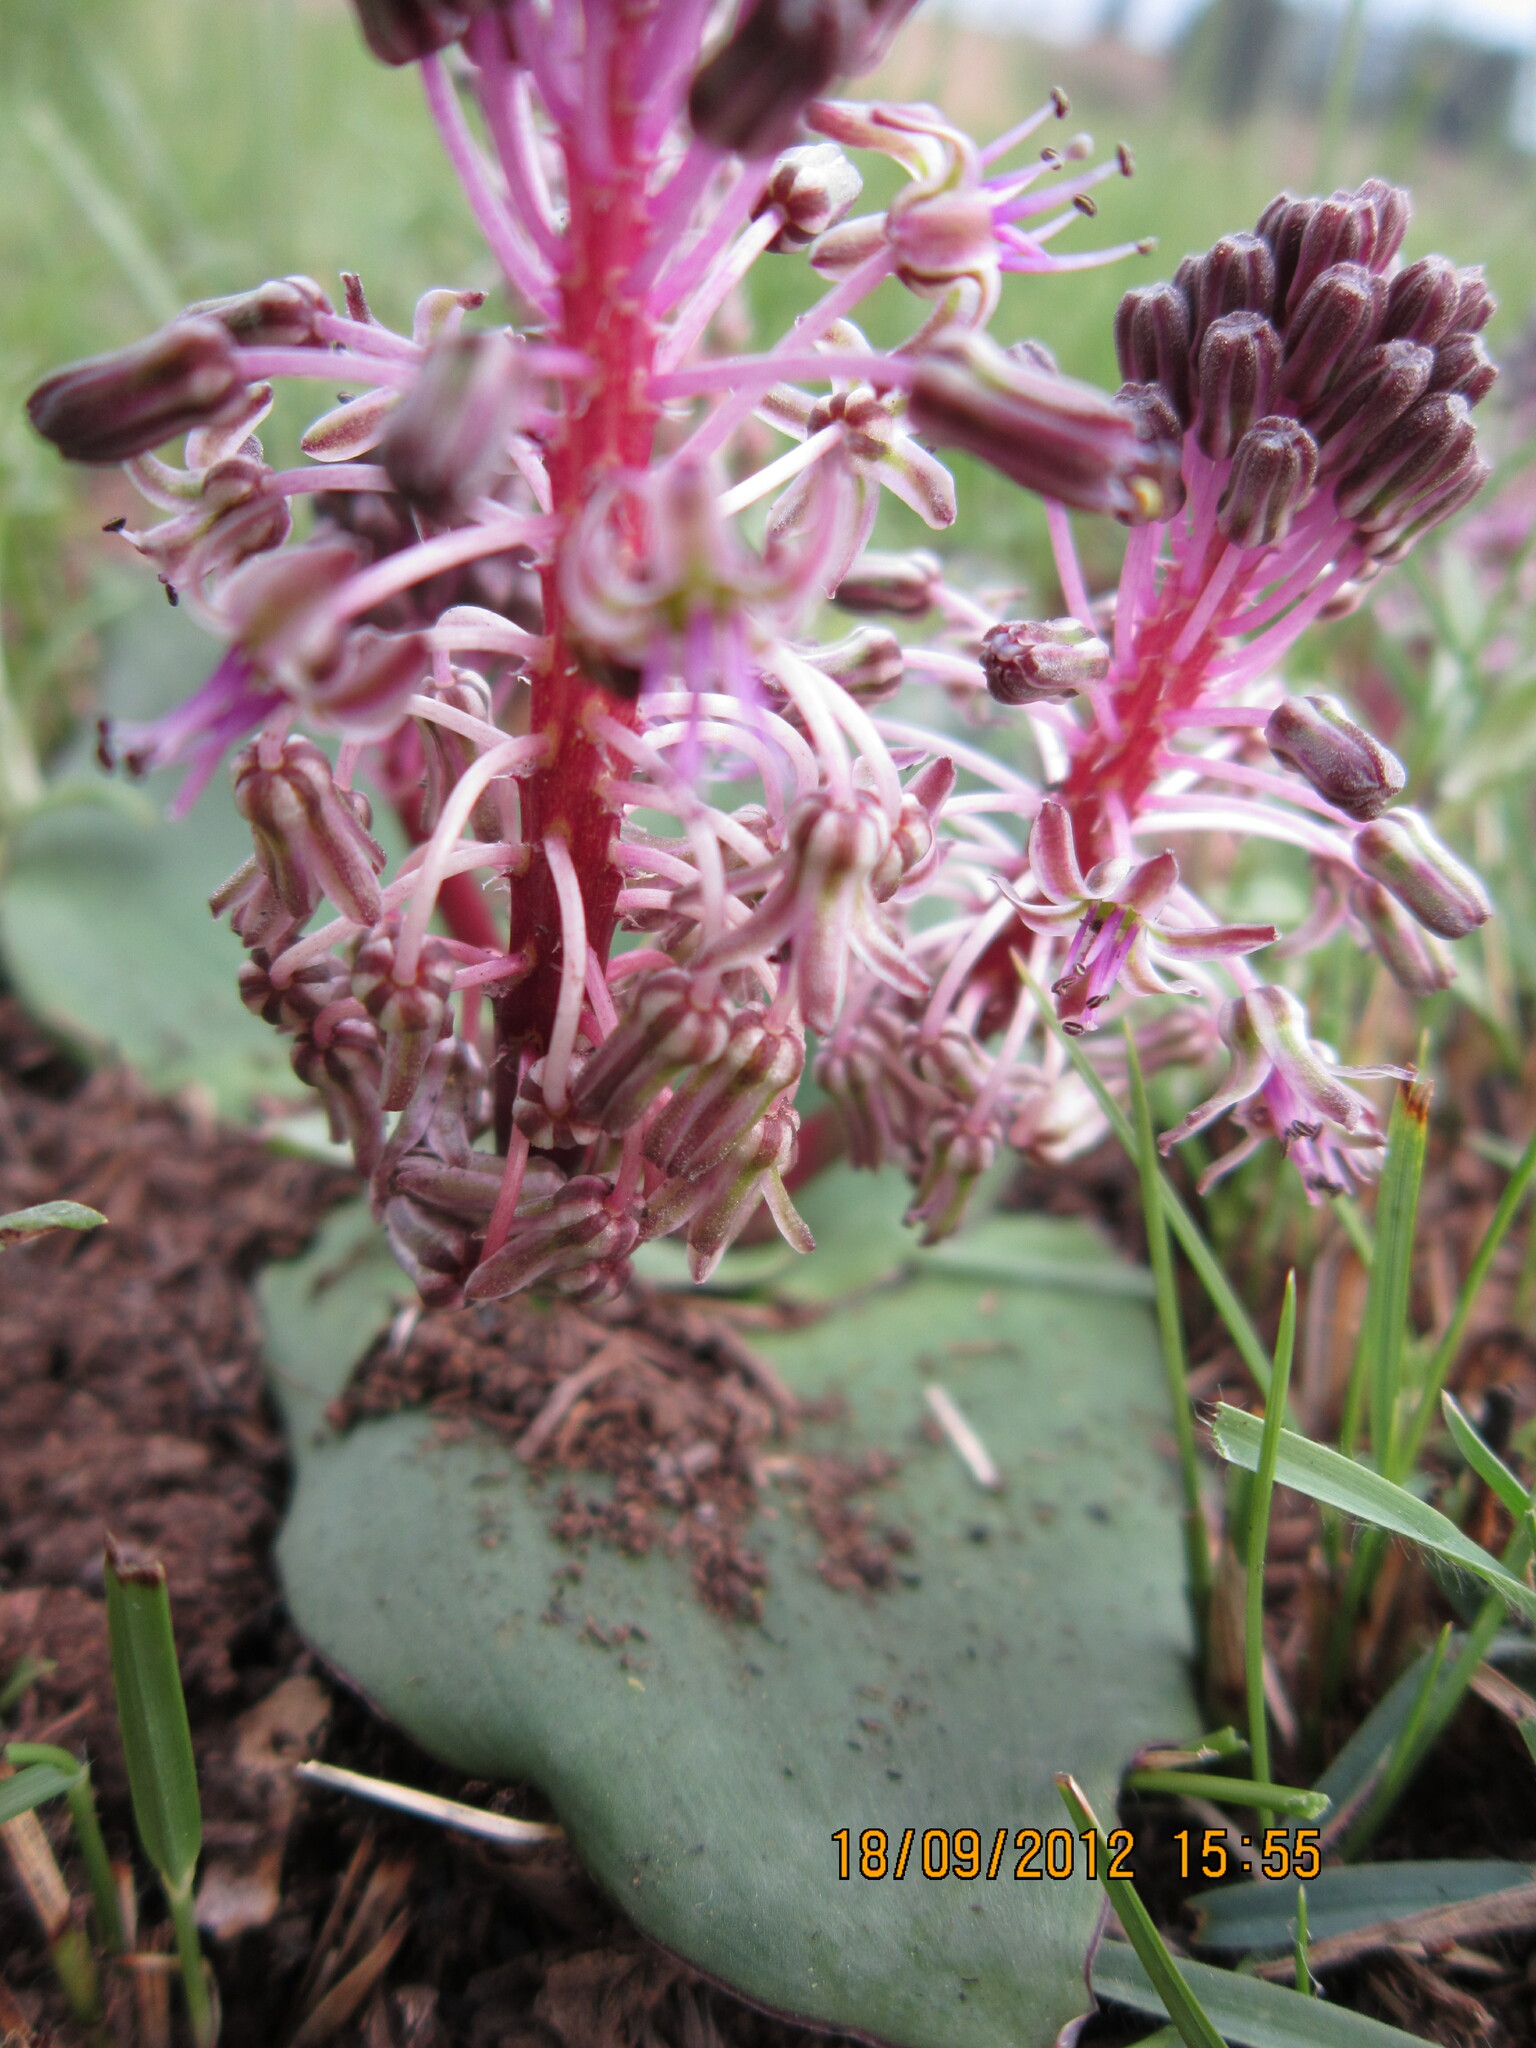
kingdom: Plantae
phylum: Tracheophyta
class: Liliopsida
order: Asparagales
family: Asparagaceae
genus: Ledebouria
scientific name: Ledebouria ovatifolia
